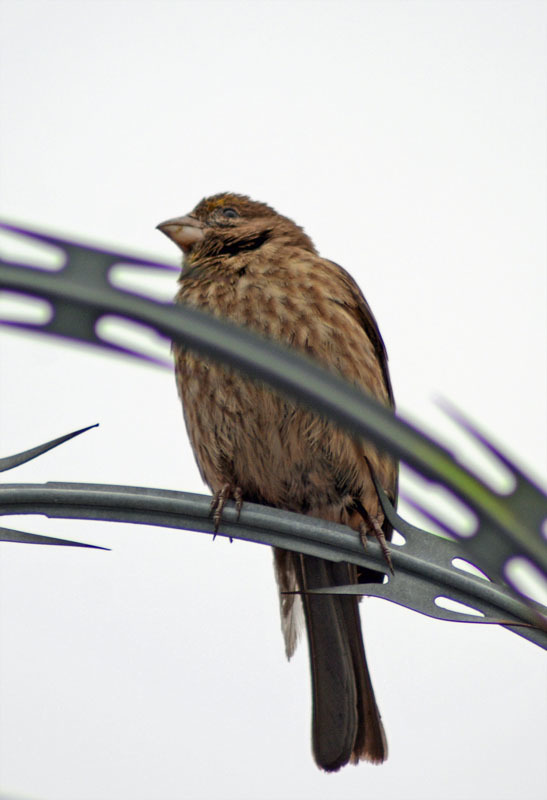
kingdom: Animalia
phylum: Chordata
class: Aves
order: Passeriformes
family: Fringillidae
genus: Haemorhous
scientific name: Haemorhous mexicanus
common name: House finch
